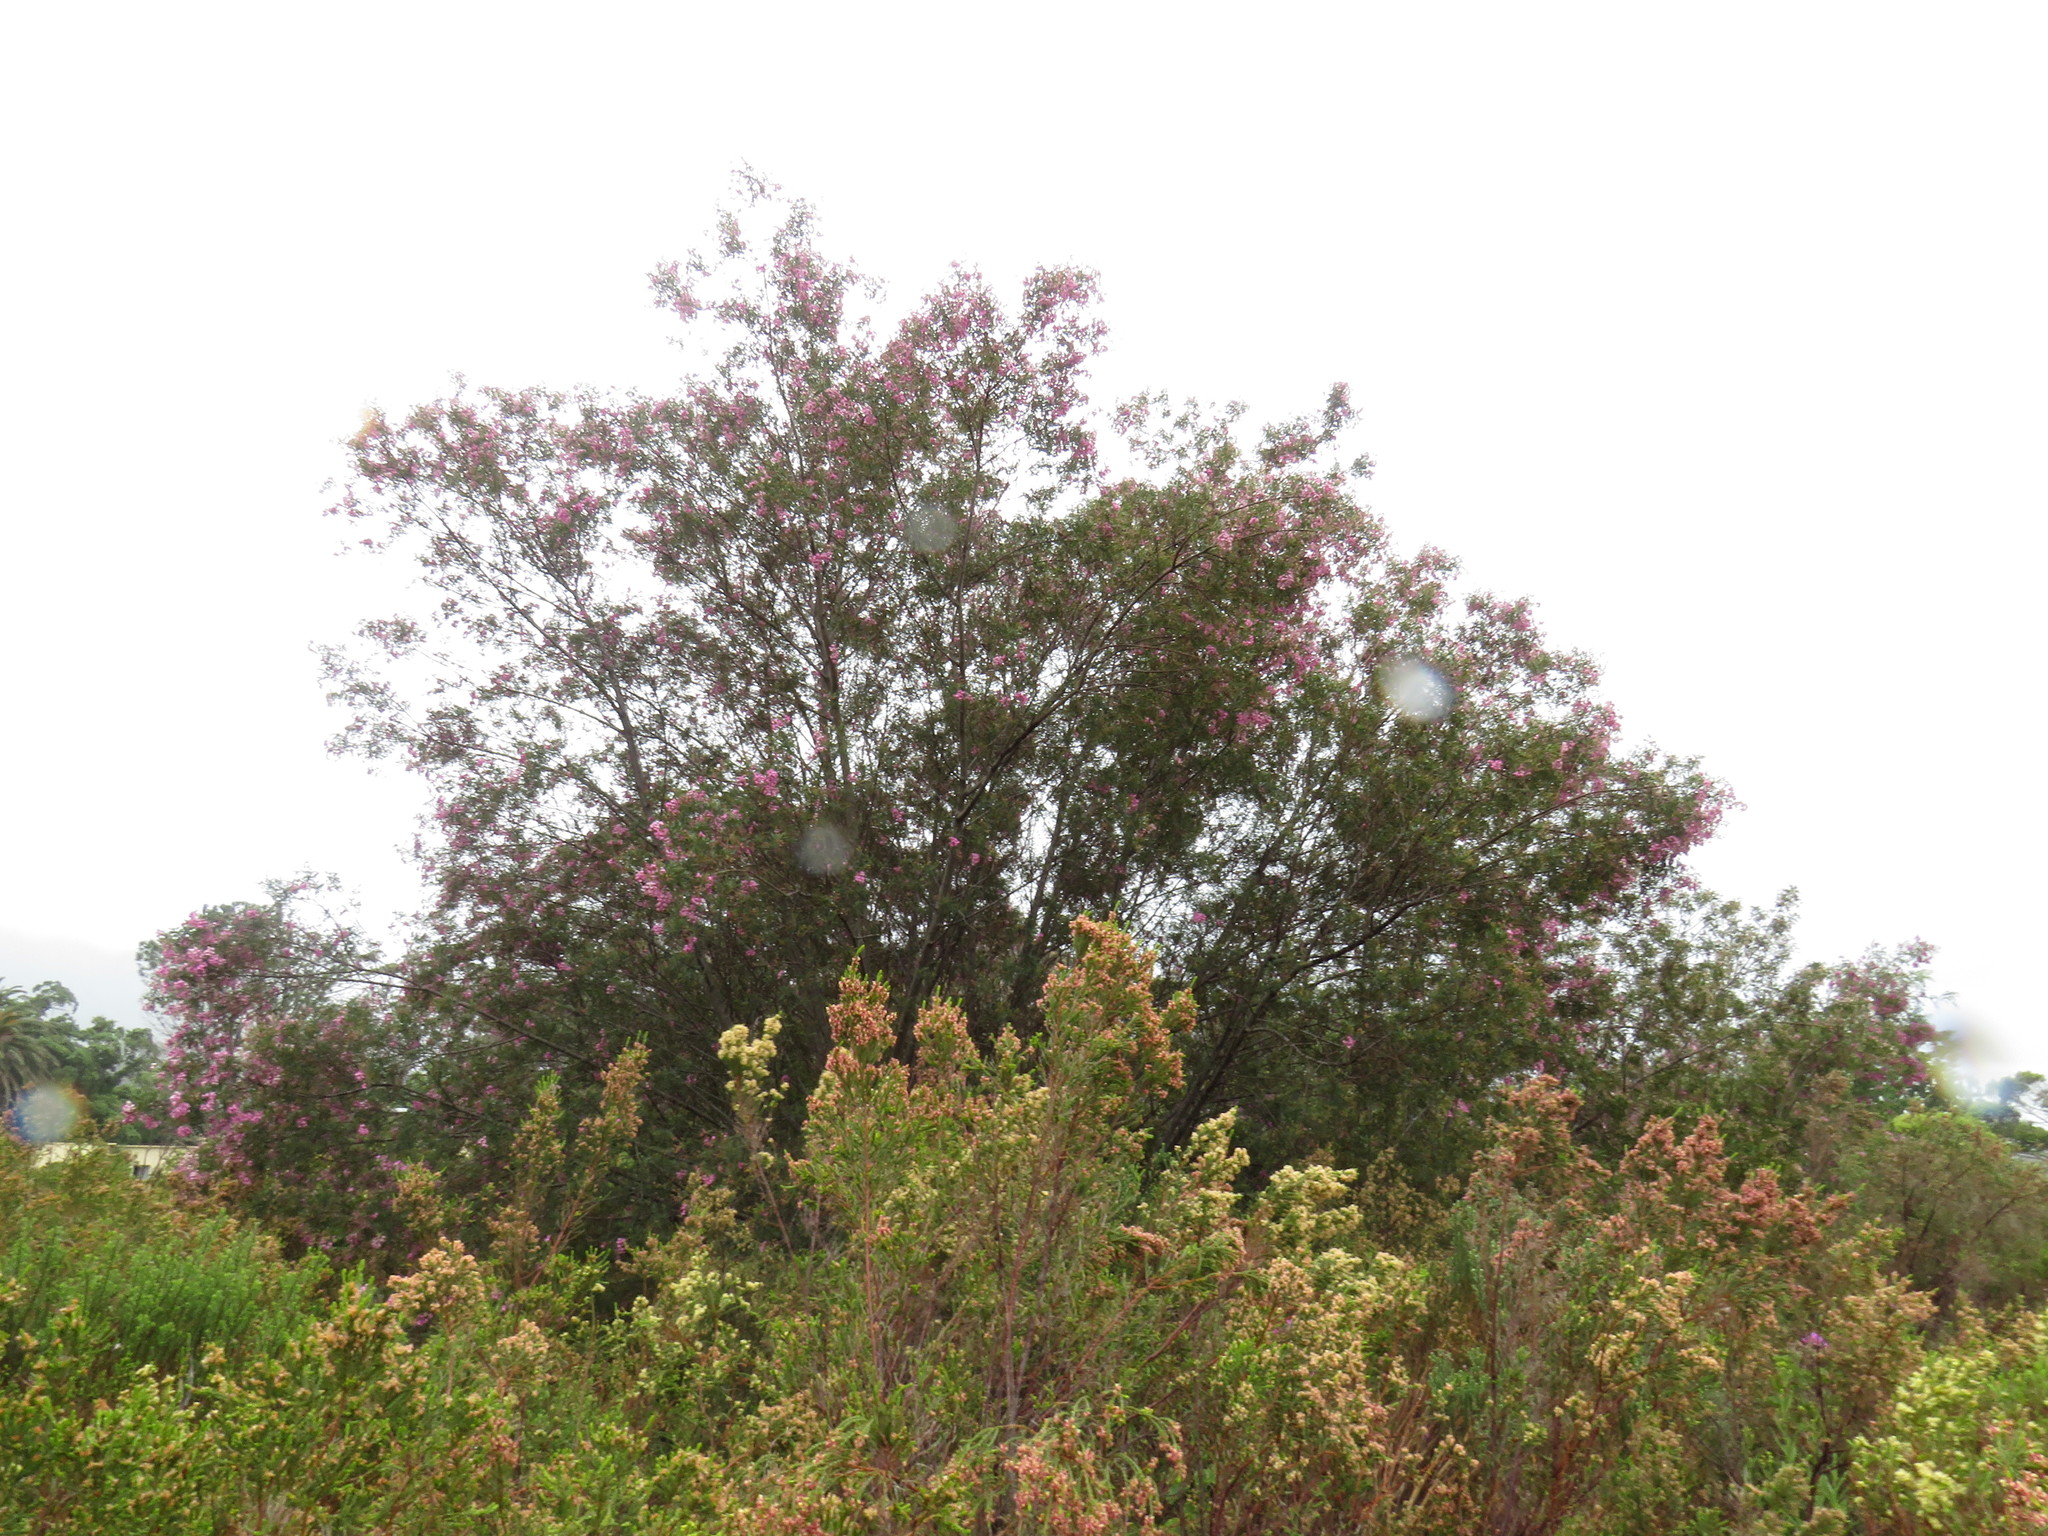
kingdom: Plantae
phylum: Tracheophyta
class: Magnoliopsida
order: Fabales
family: Fabaceae
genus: Virgilia
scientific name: Virgilia oroboides
